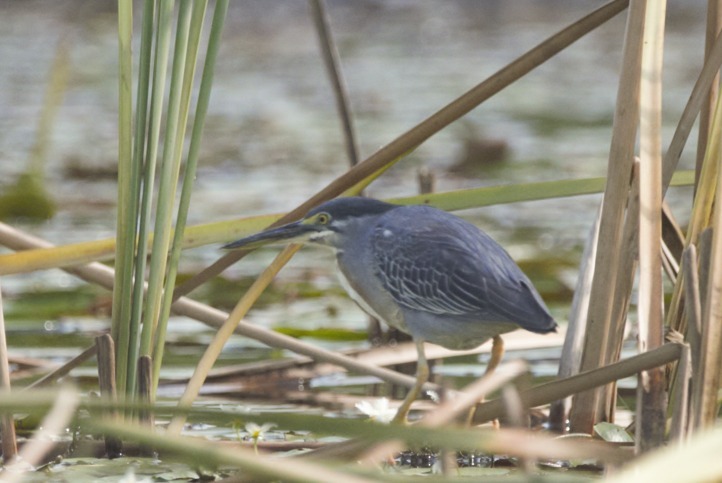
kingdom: Animalia
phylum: Chordata
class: Aves
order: Pelecaniformes
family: Ardeidae
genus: Butorides
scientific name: Butorides striata
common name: Striated heron
